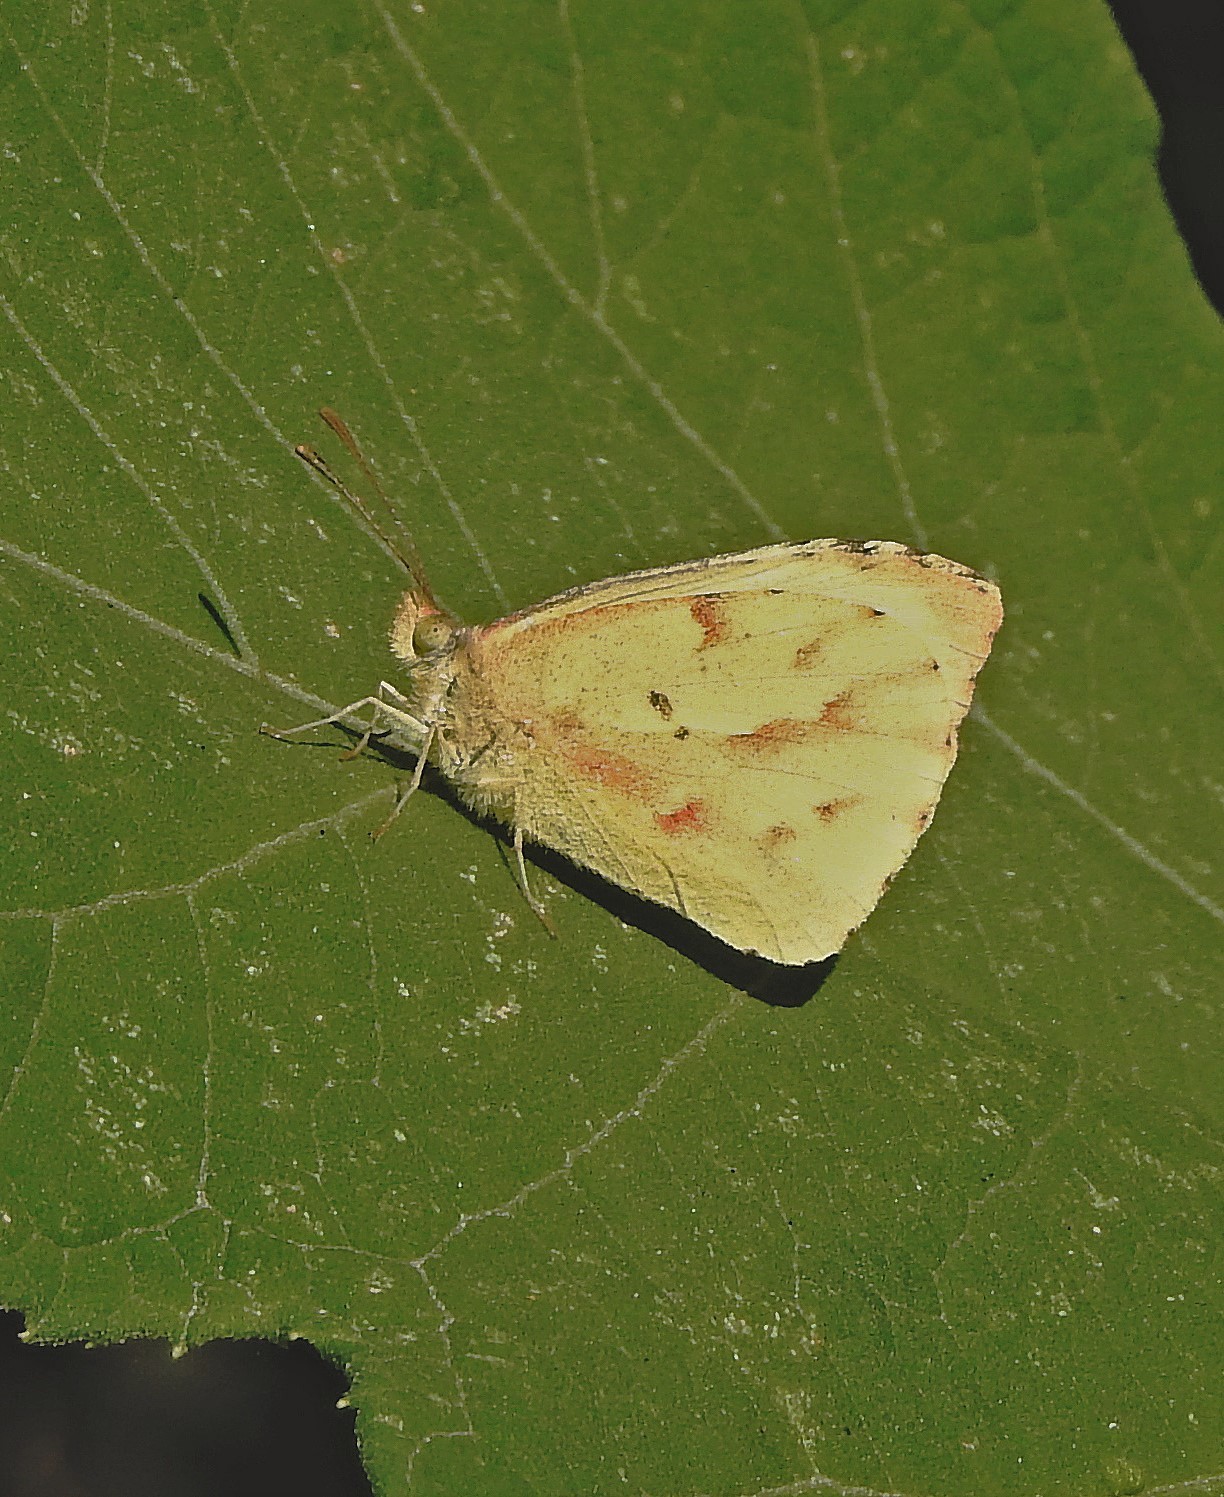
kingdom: Animalia
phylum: Arthropoda
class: Insecta
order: Lepidoptera
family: Pieridae
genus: Teriocolias
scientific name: Teriocolias zelia
